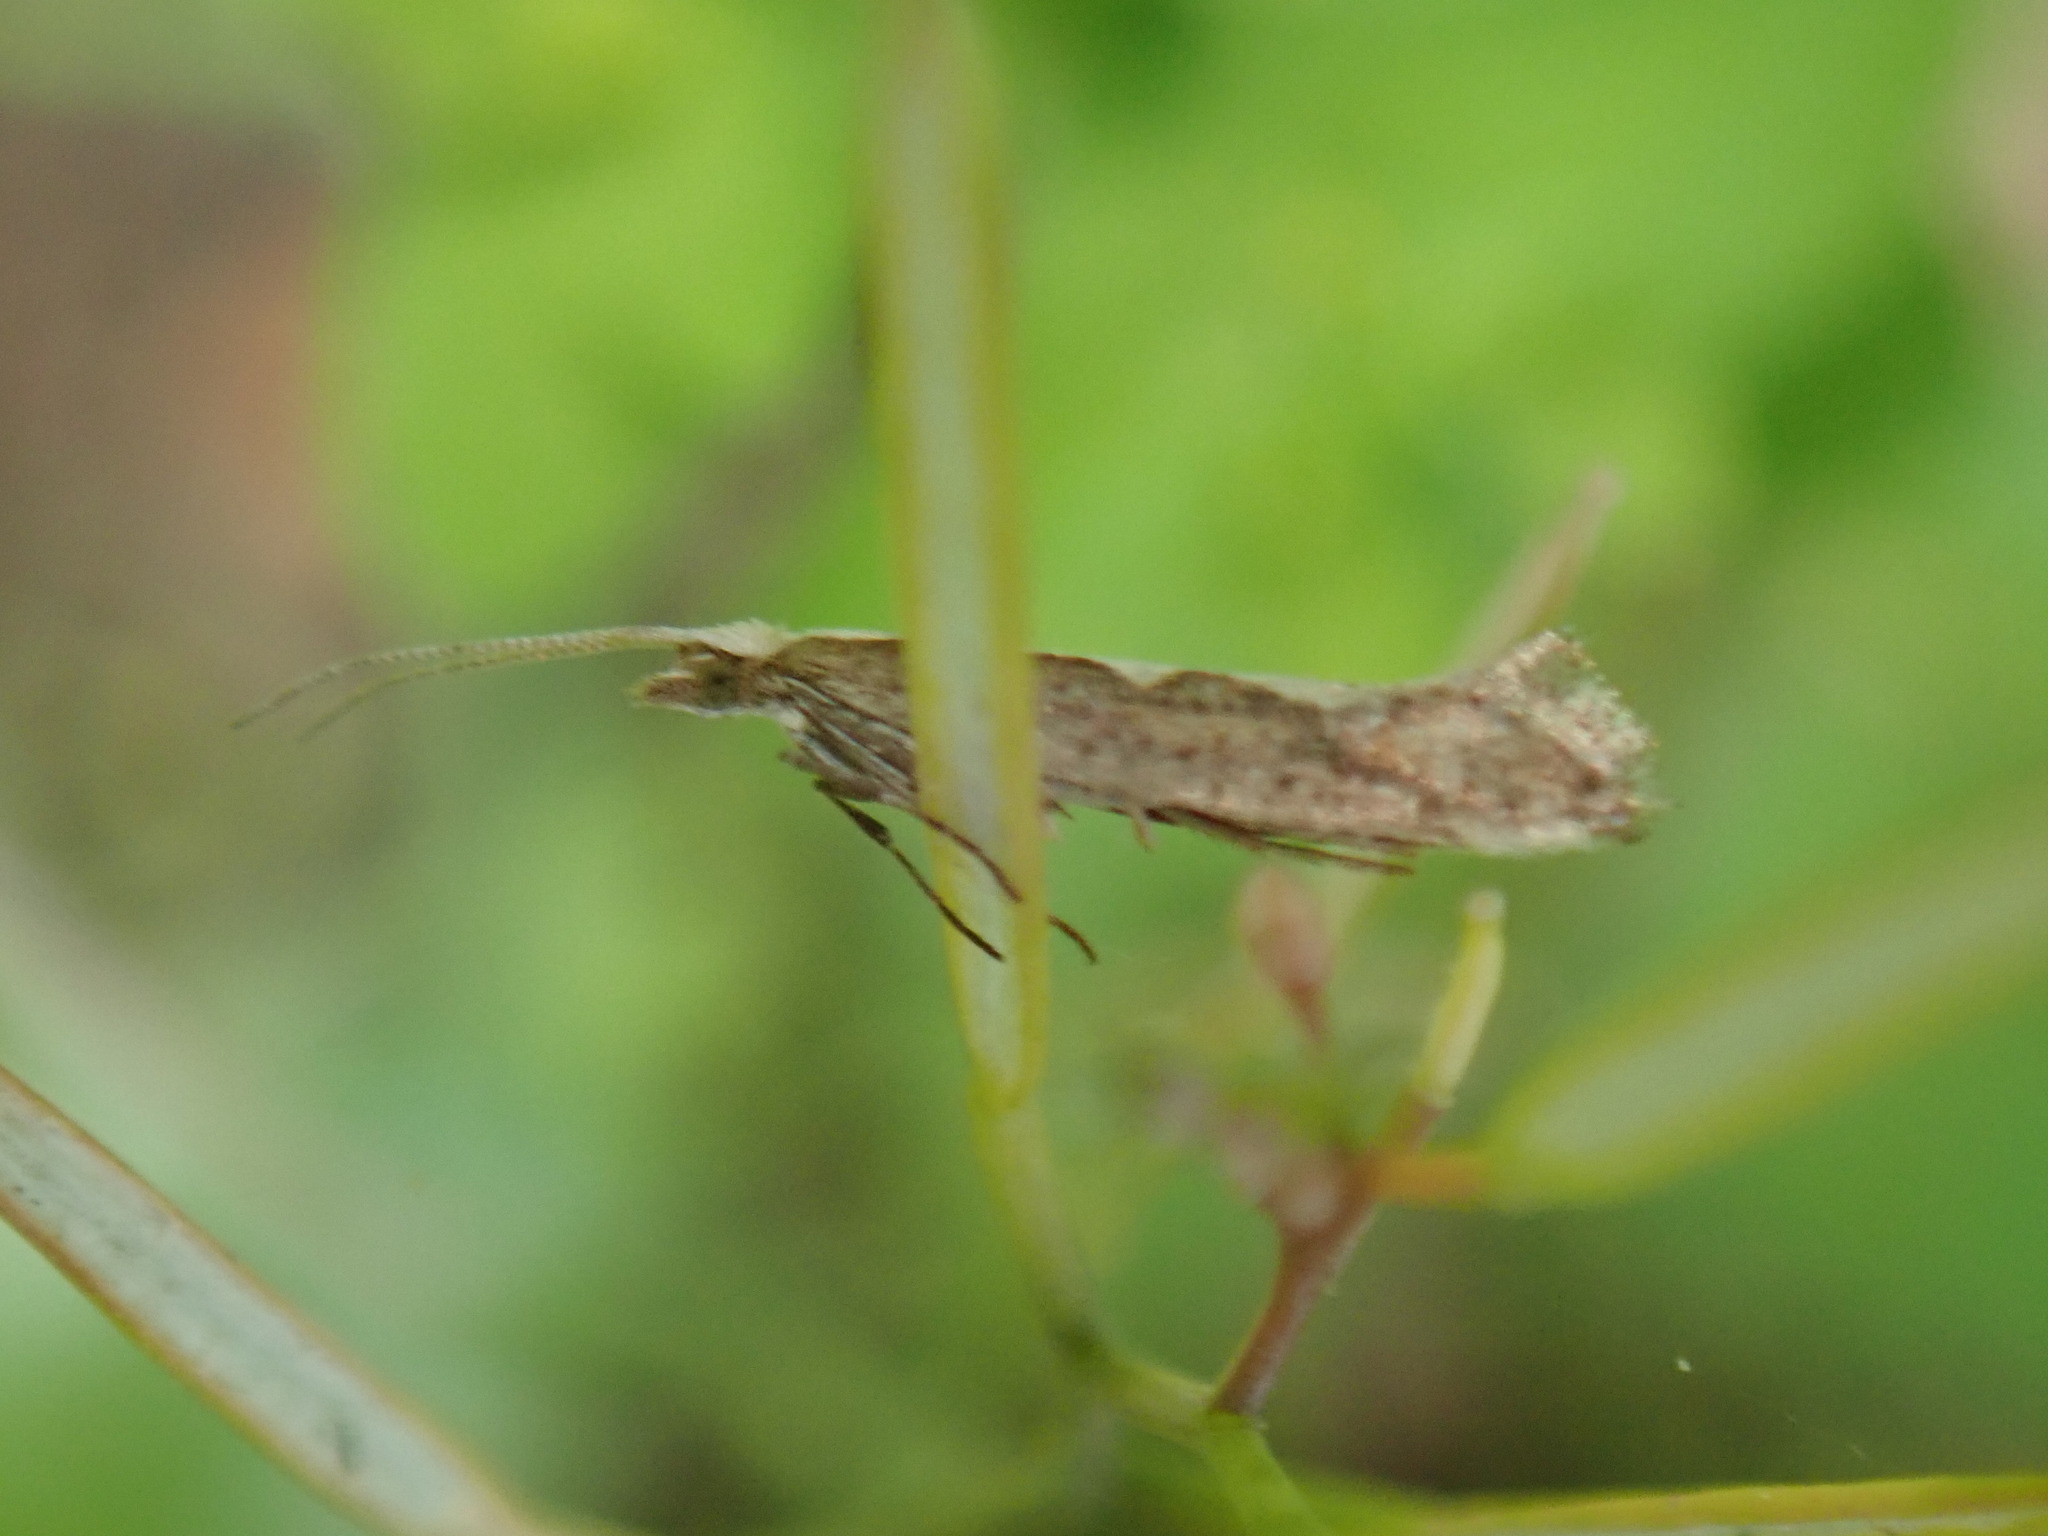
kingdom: Animalia
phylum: Arthropoda
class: Insecta
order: Lepidoptera
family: Plutellidae
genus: Plutella
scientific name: Plutella xylostella
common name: Diamond-back moth
